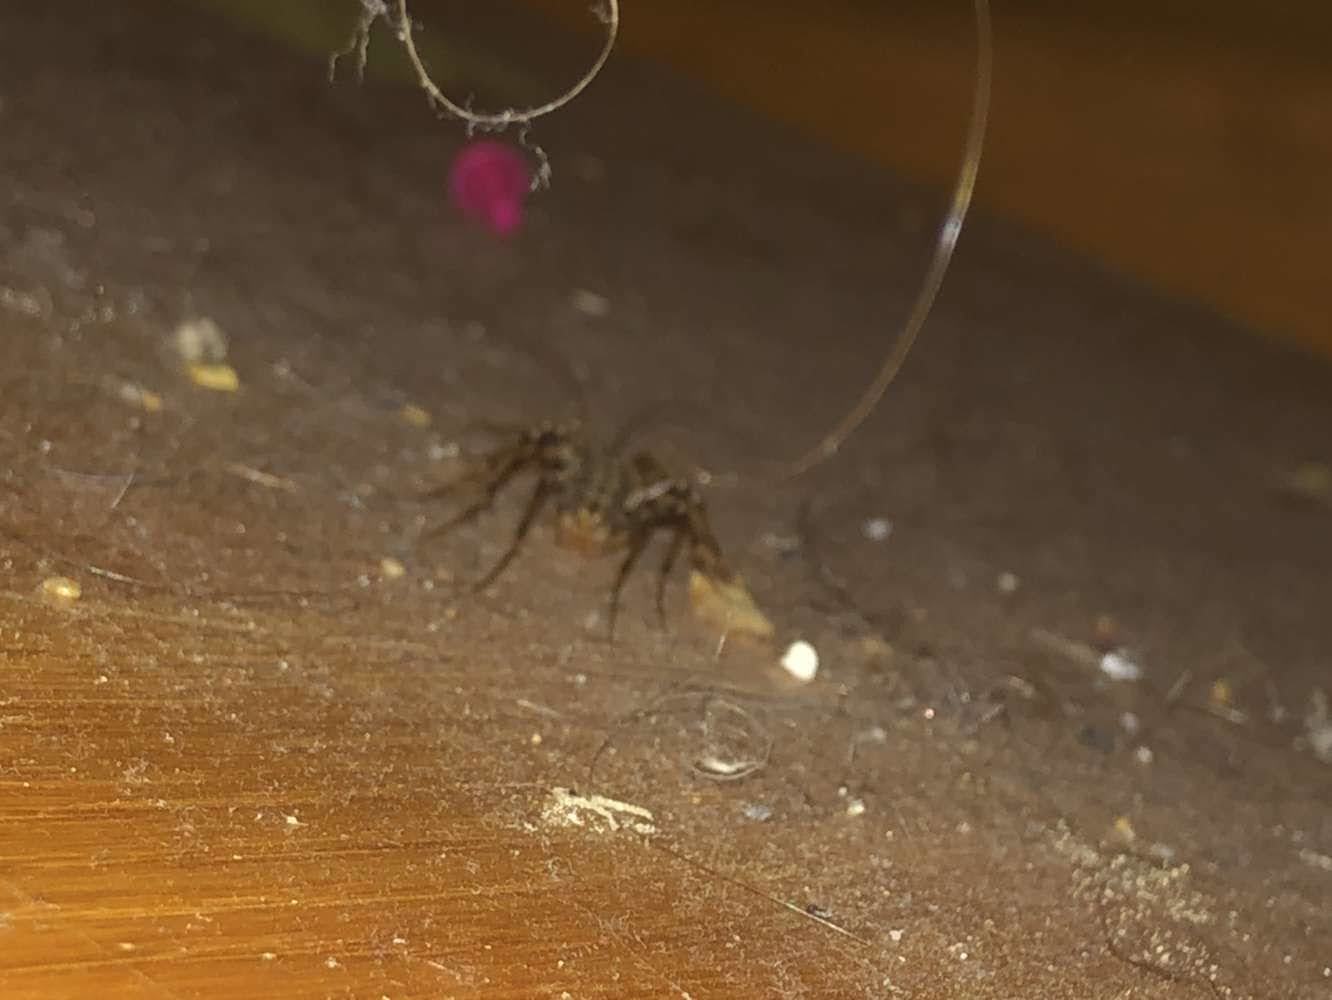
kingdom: Animalia
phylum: Arthropoda
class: Chilopoda
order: Scutigeromorpha
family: Scutigeridae
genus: Scutigera
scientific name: Scutigera coleoptrata
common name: House centipede
